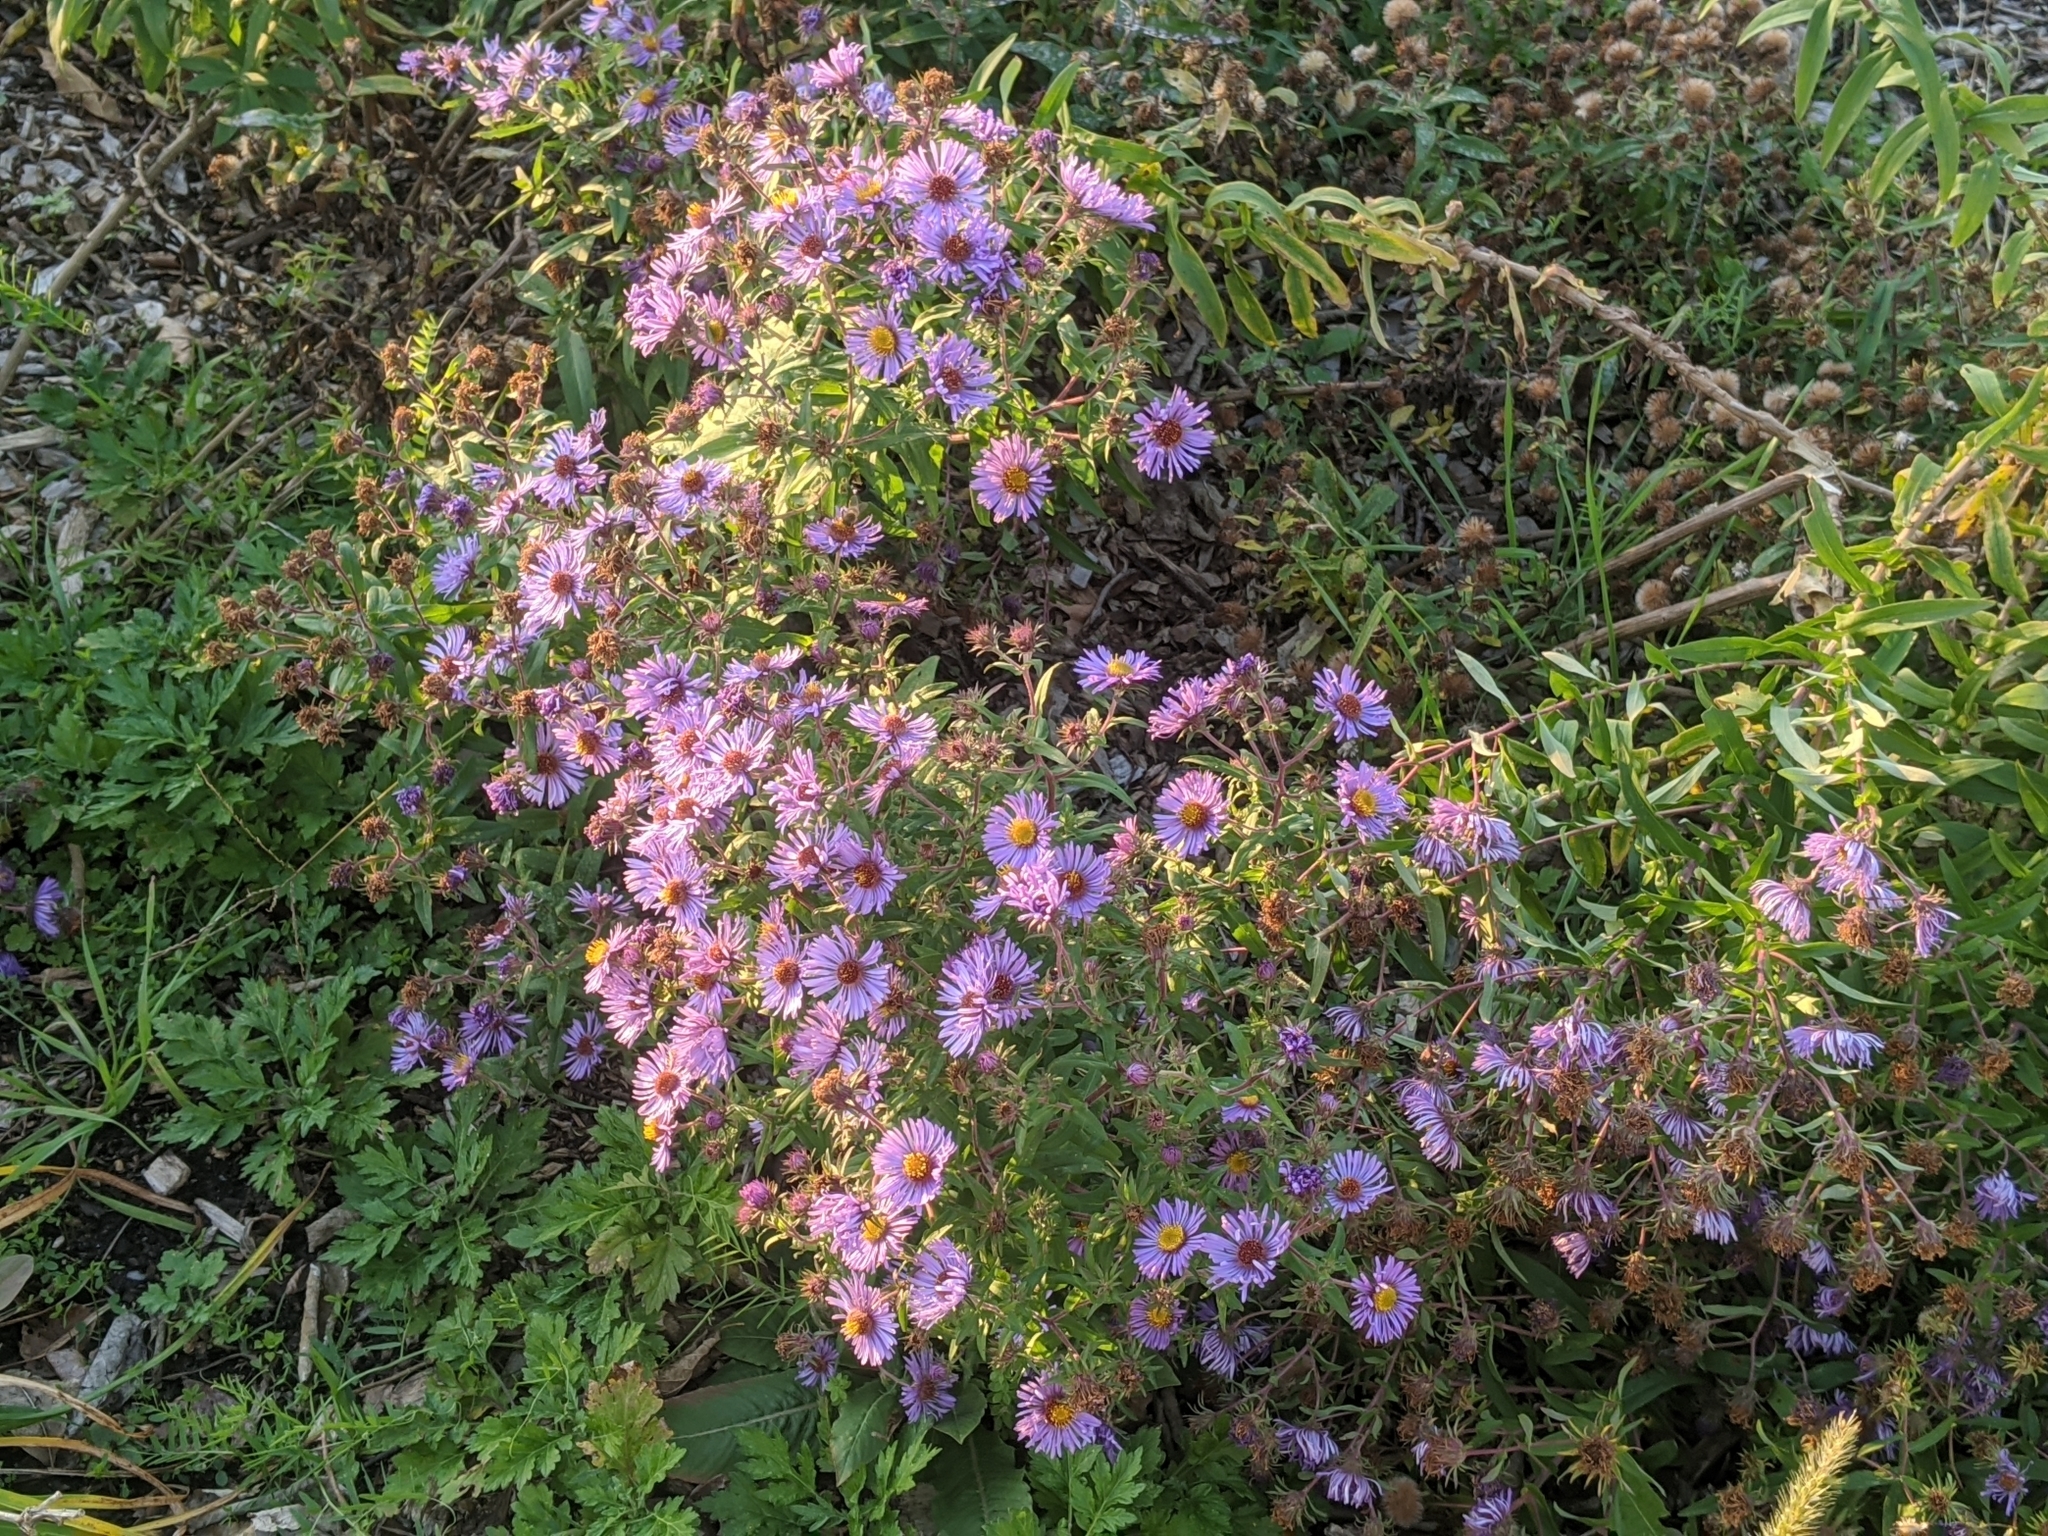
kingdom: Plantae
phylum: Tracheophyta
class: Magnoliopsida
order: Asterales
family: Asteraceae
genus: Symphyotrichum
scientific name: Symphyotrichum novae-angliae
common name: Michaelmas daisy
